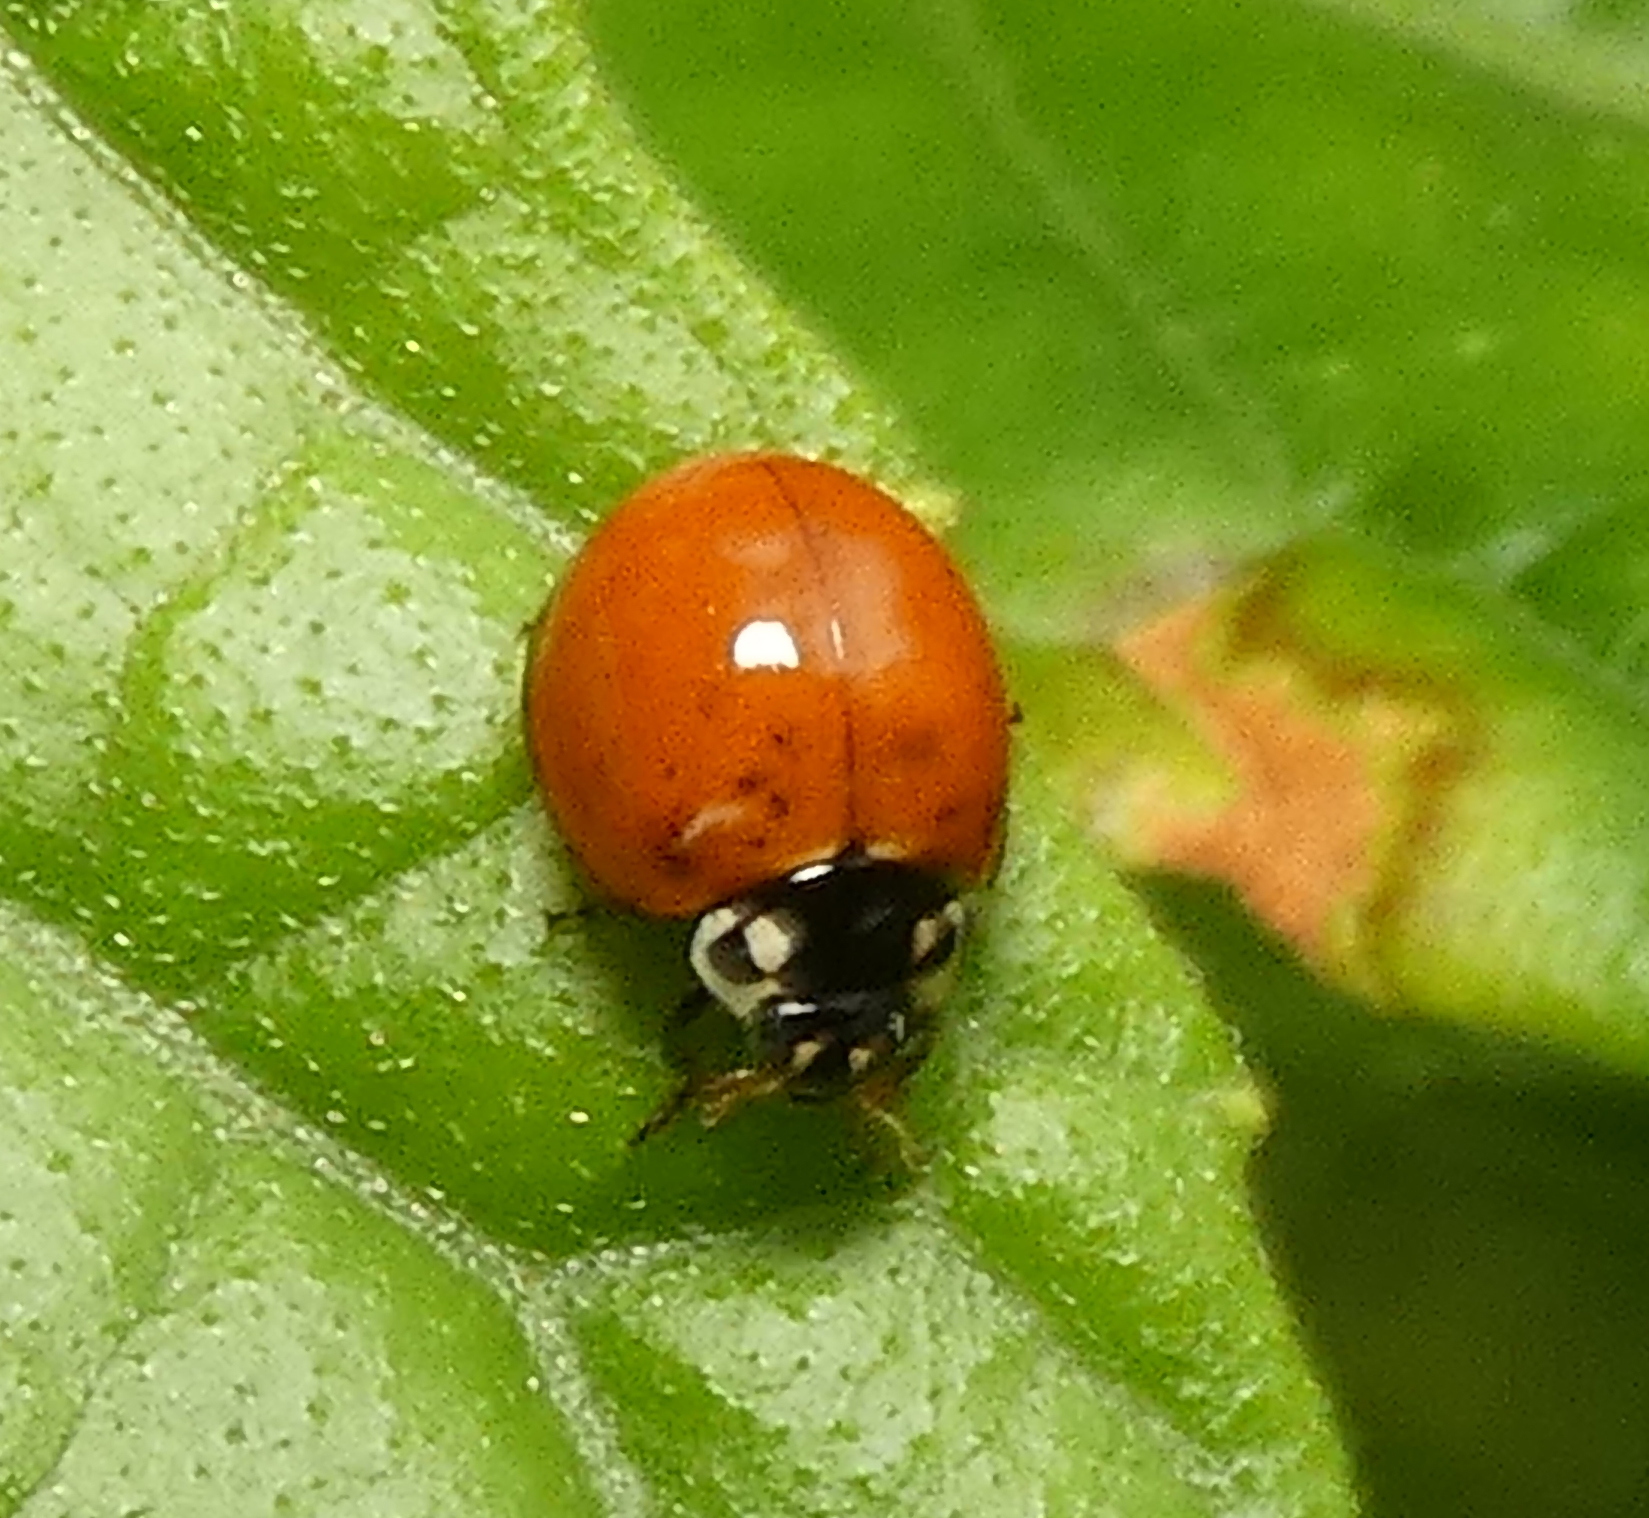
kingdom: Animalia
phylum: Arthropoda
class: Insecta
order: Coleoptera
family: Coccinellidae
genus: Cycloneda
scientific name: Cycloneda sanguinea
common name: Ladybird beetle
